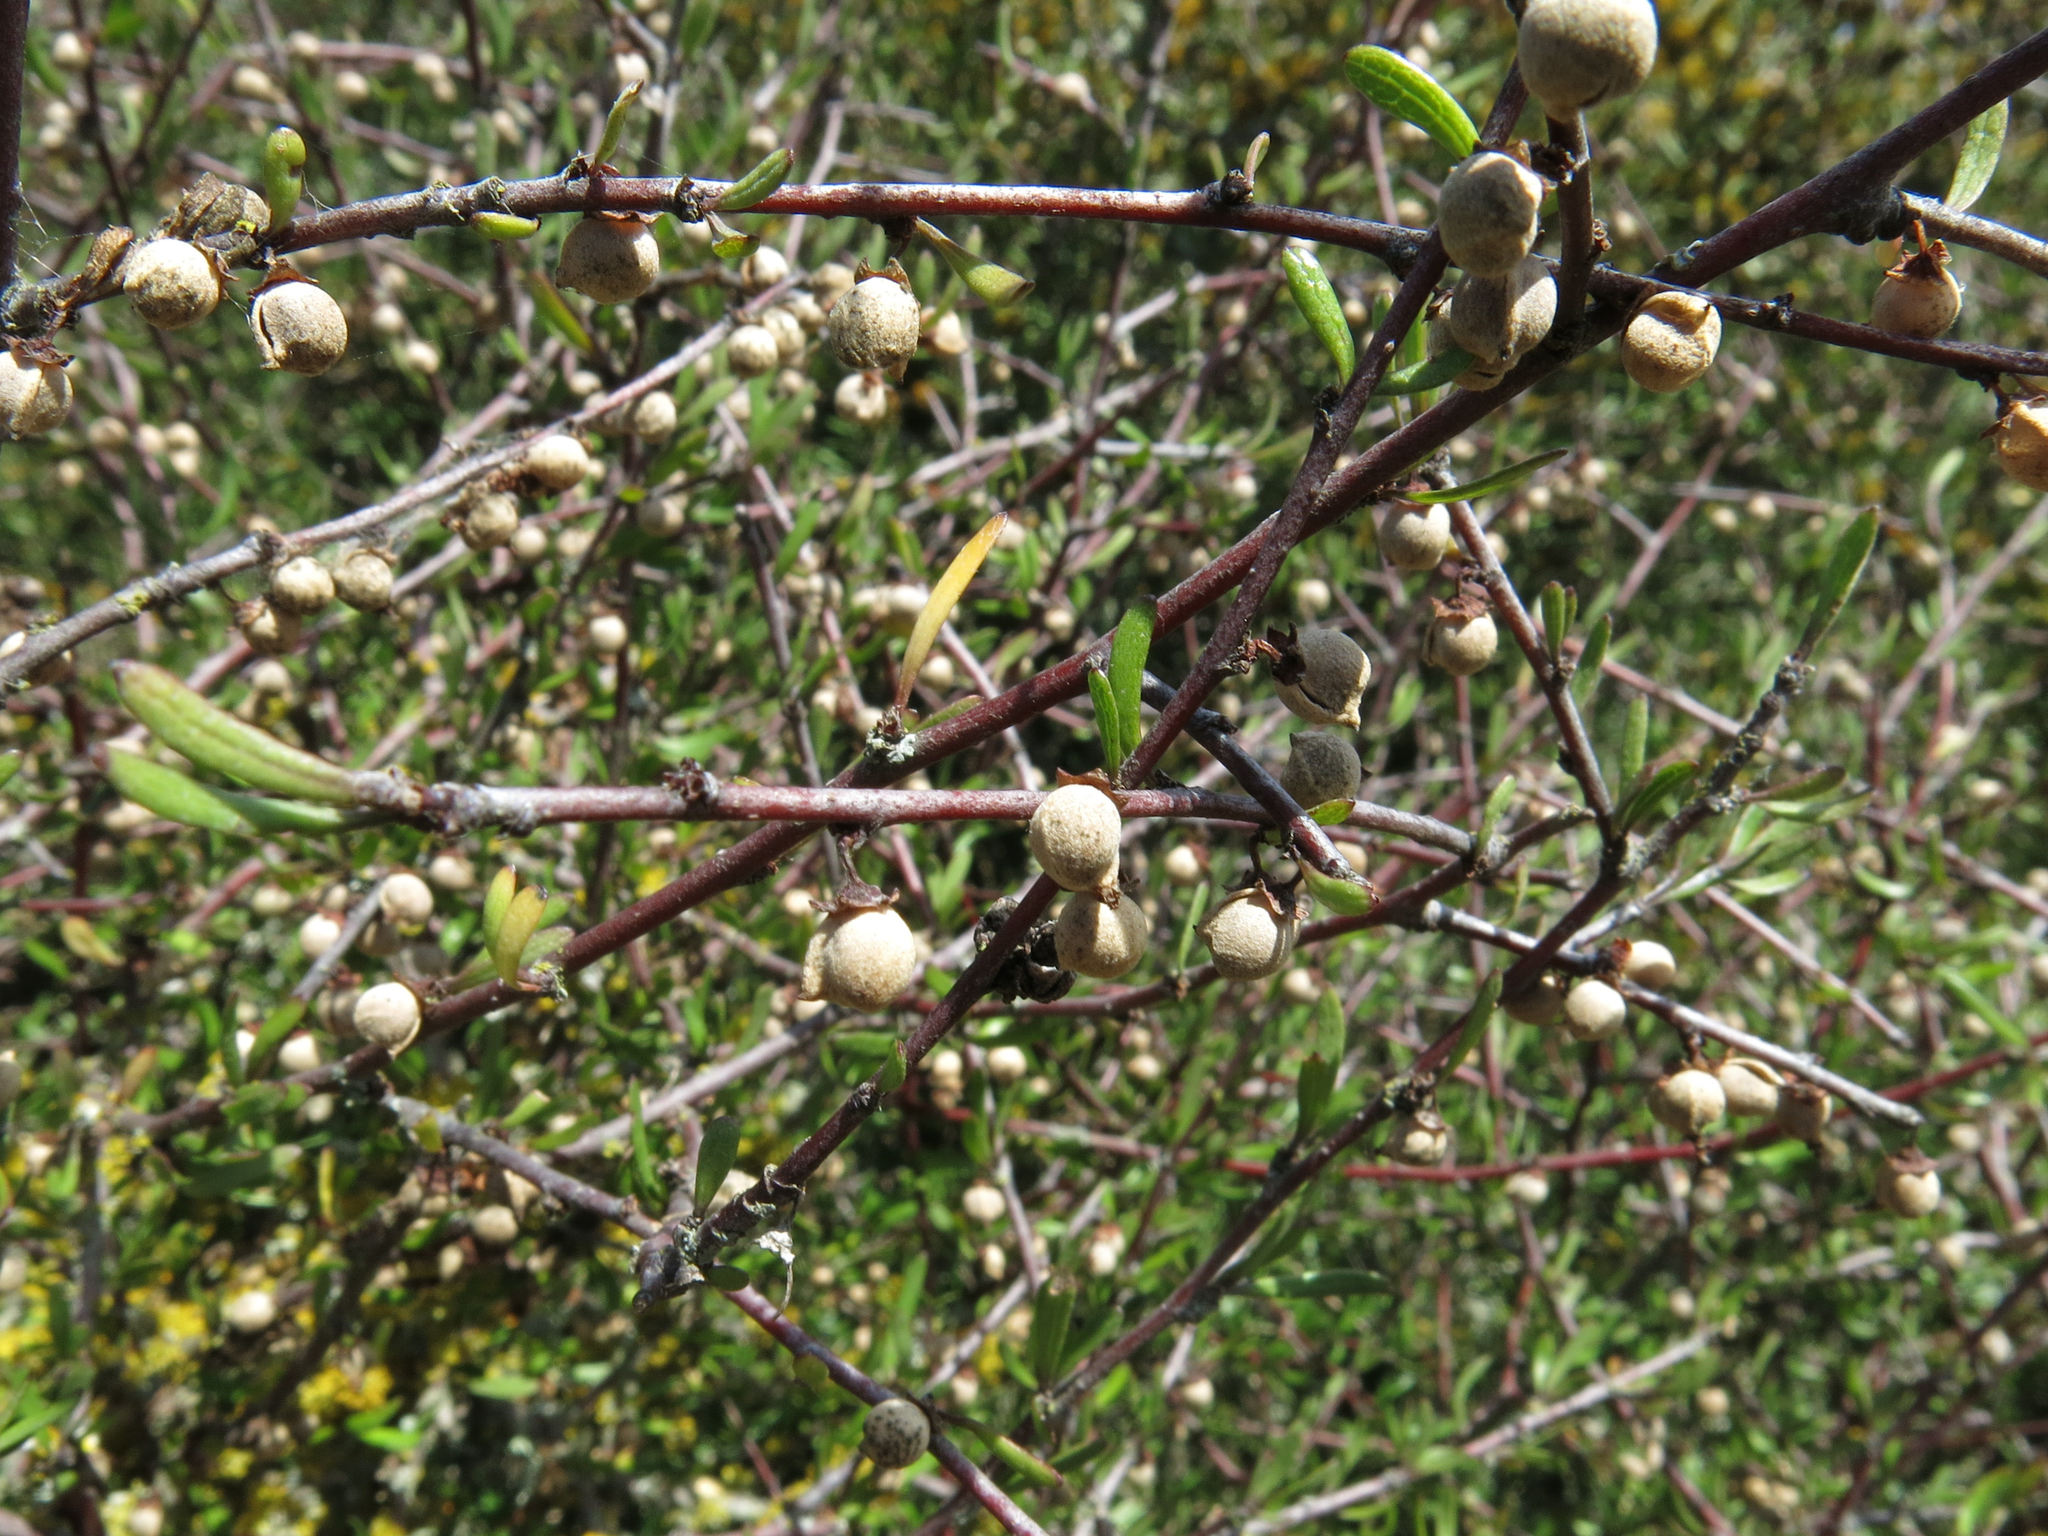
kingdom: Plantae
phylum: Tracheophyta
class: Magnoliopsida
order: Malvales
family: Malvaceae
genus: Plagianthus
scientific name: Plagianthus divaricatus
